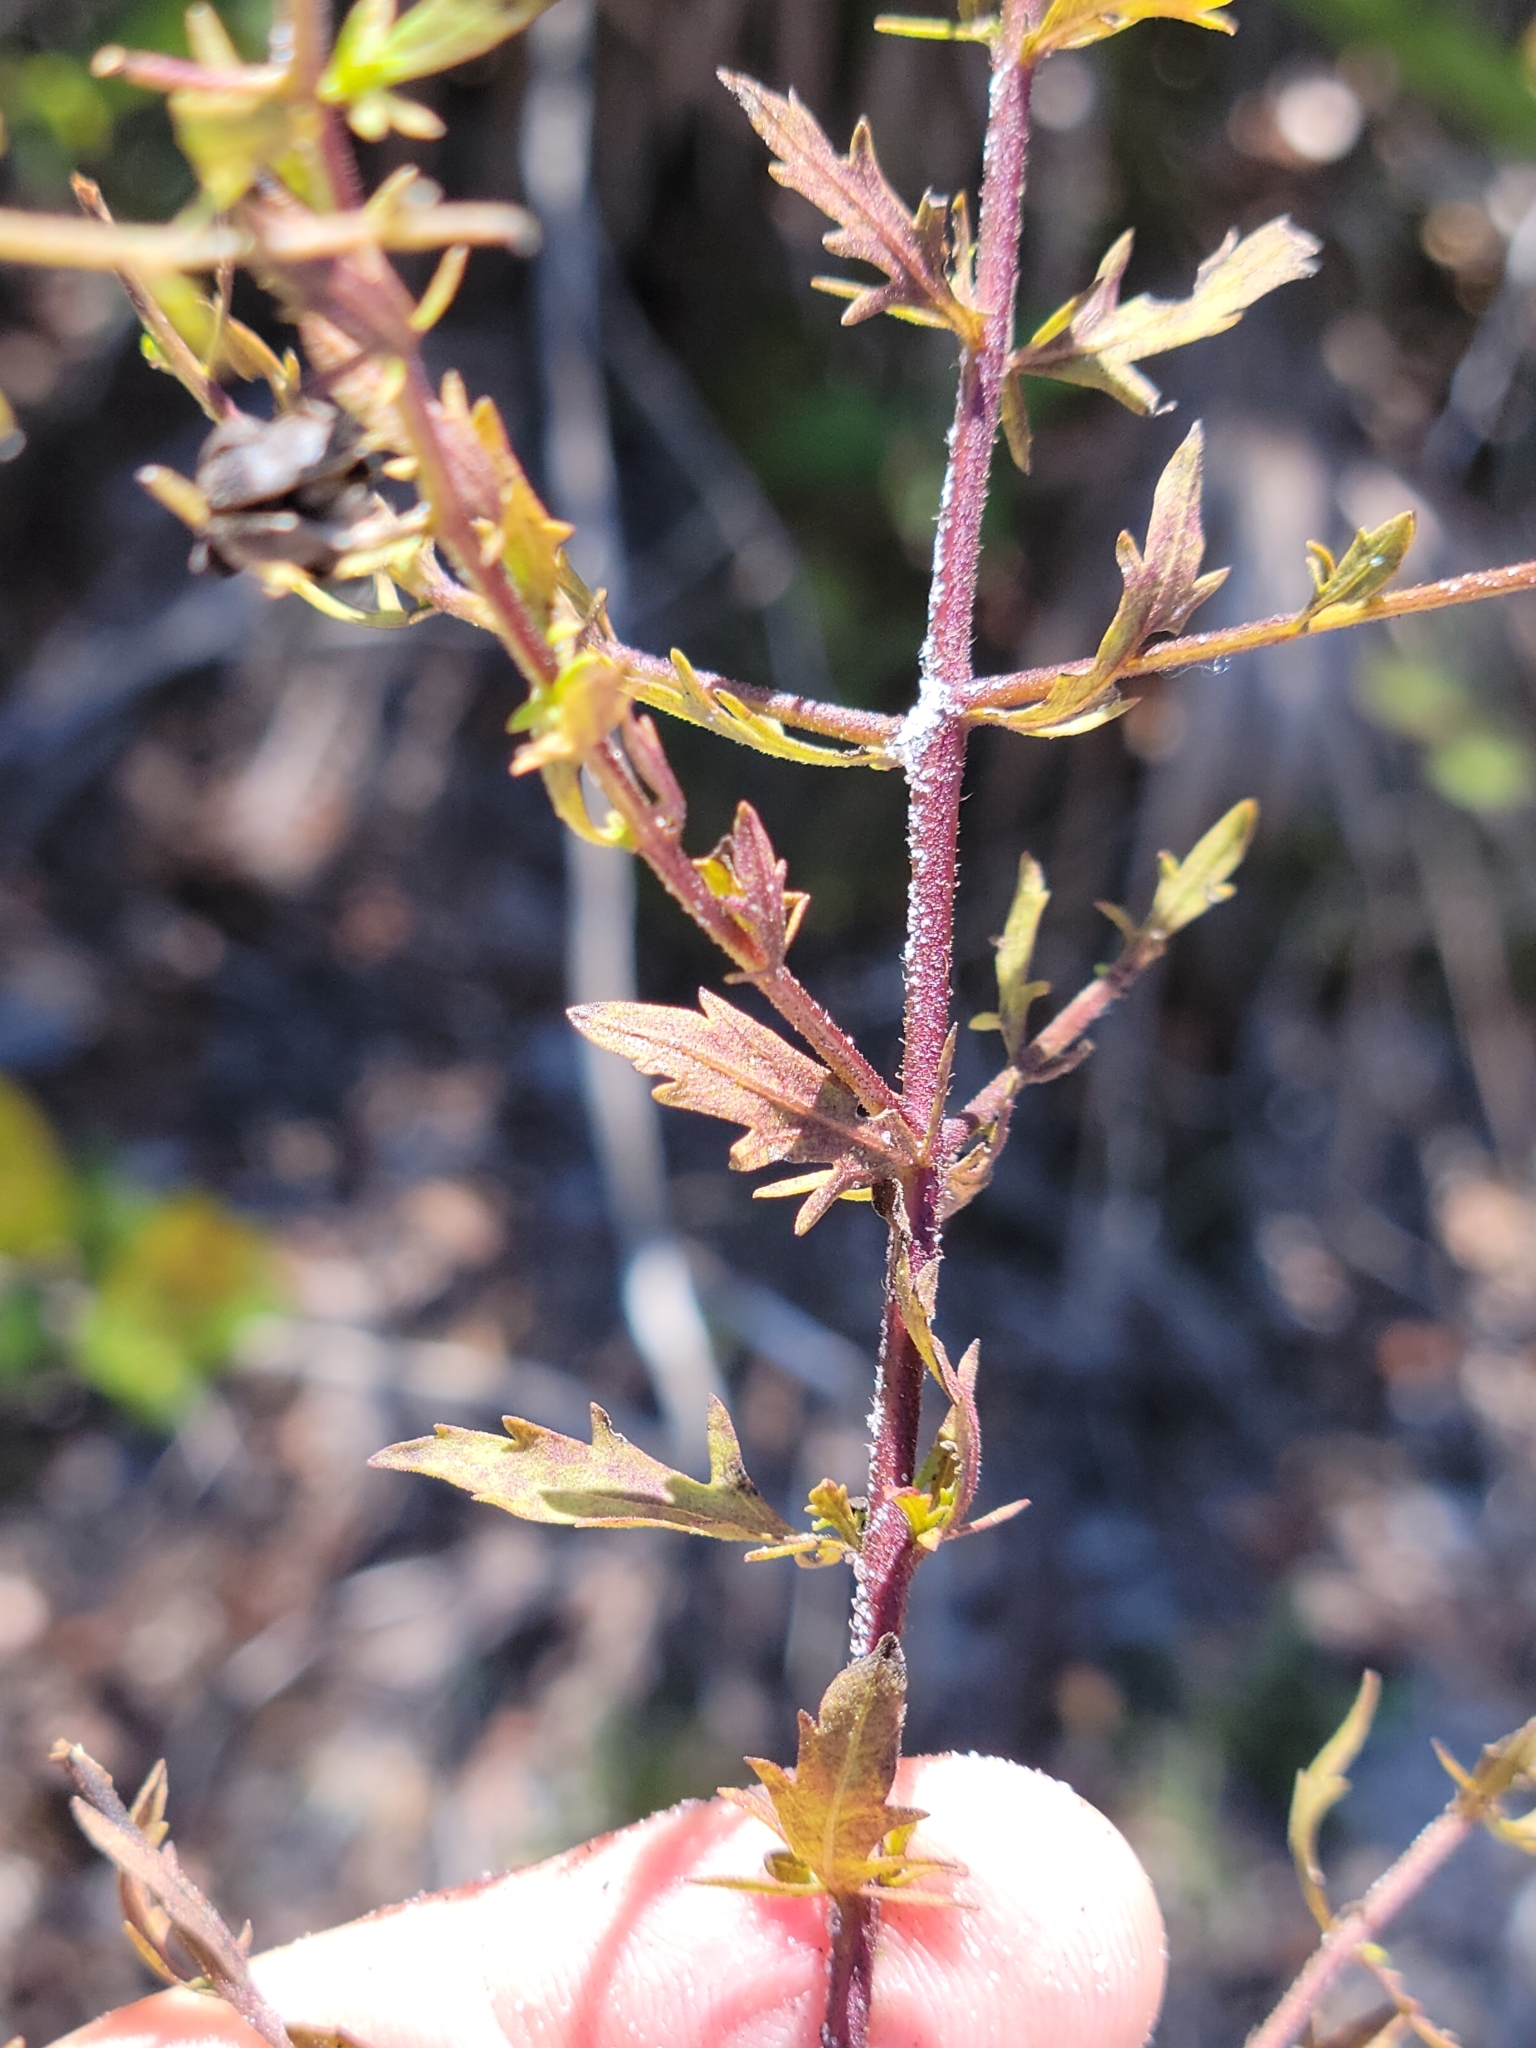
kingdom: Plantae
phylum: Tracheophyta
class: Magnoliopsida
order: Lamiales
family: Orobanchaceae
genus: Seymeria
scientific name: Seymeria pectinata
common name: Piedmont black-senna
